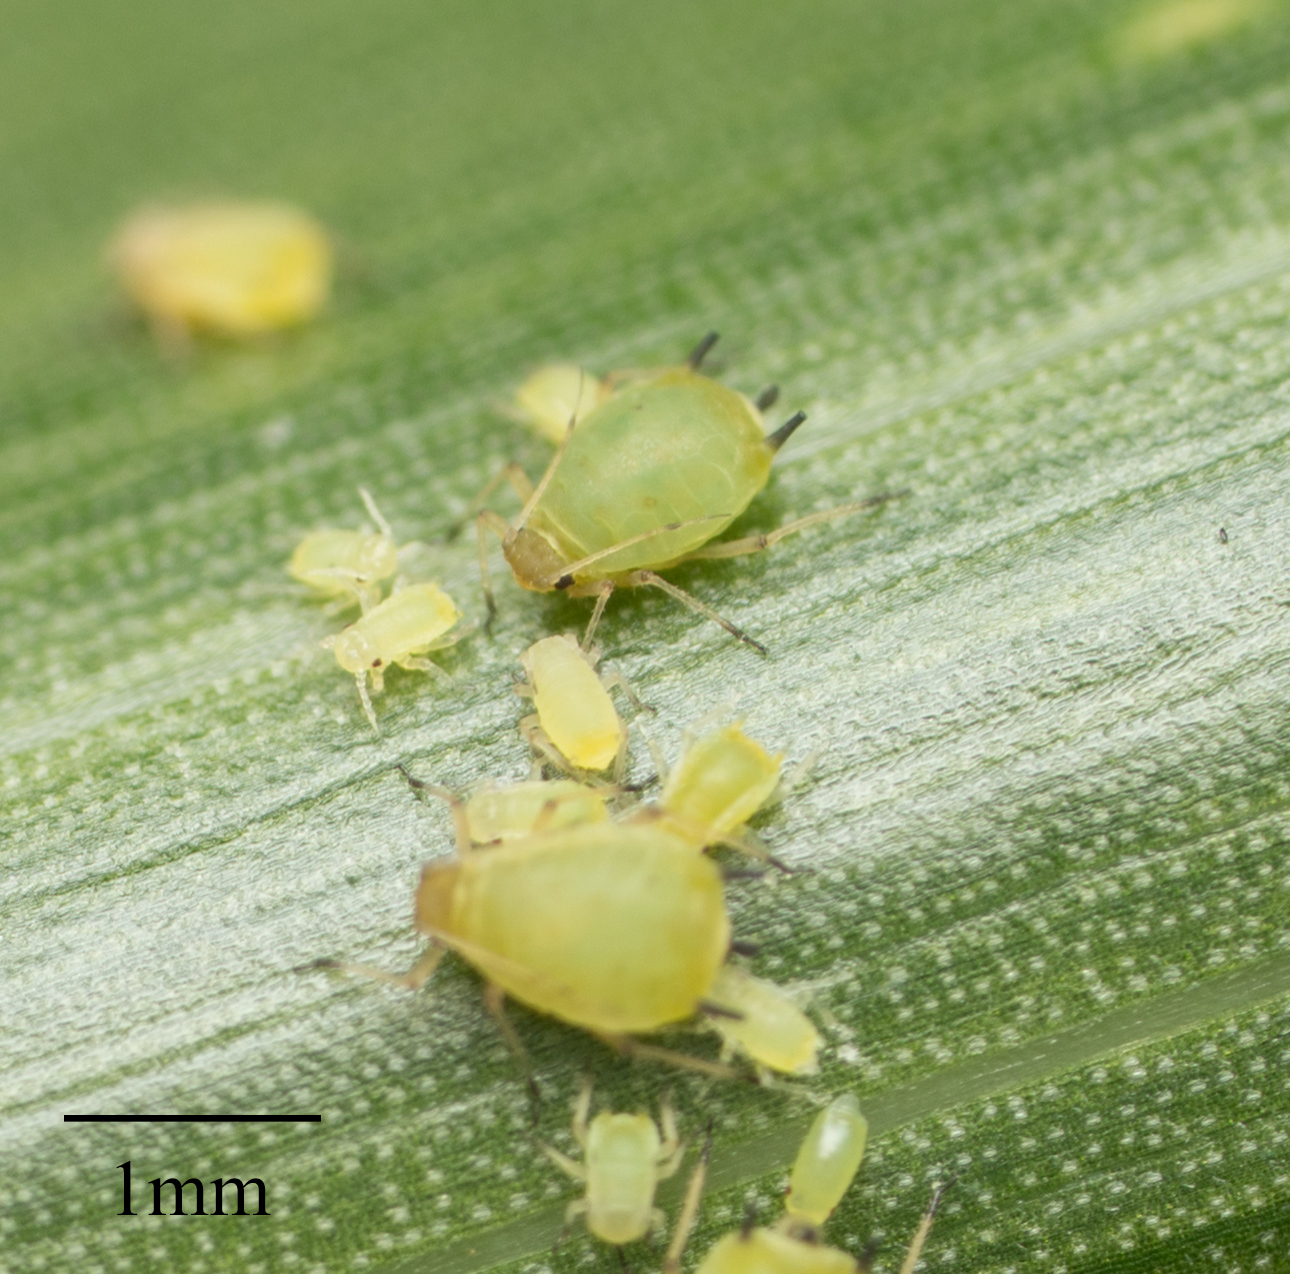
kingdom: Animalia
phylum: Arthropoda
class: Insecta
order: Hemiptera
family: Aphididae
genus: Aphis
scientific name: Aphis spiraecola
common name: Spirea aphid
